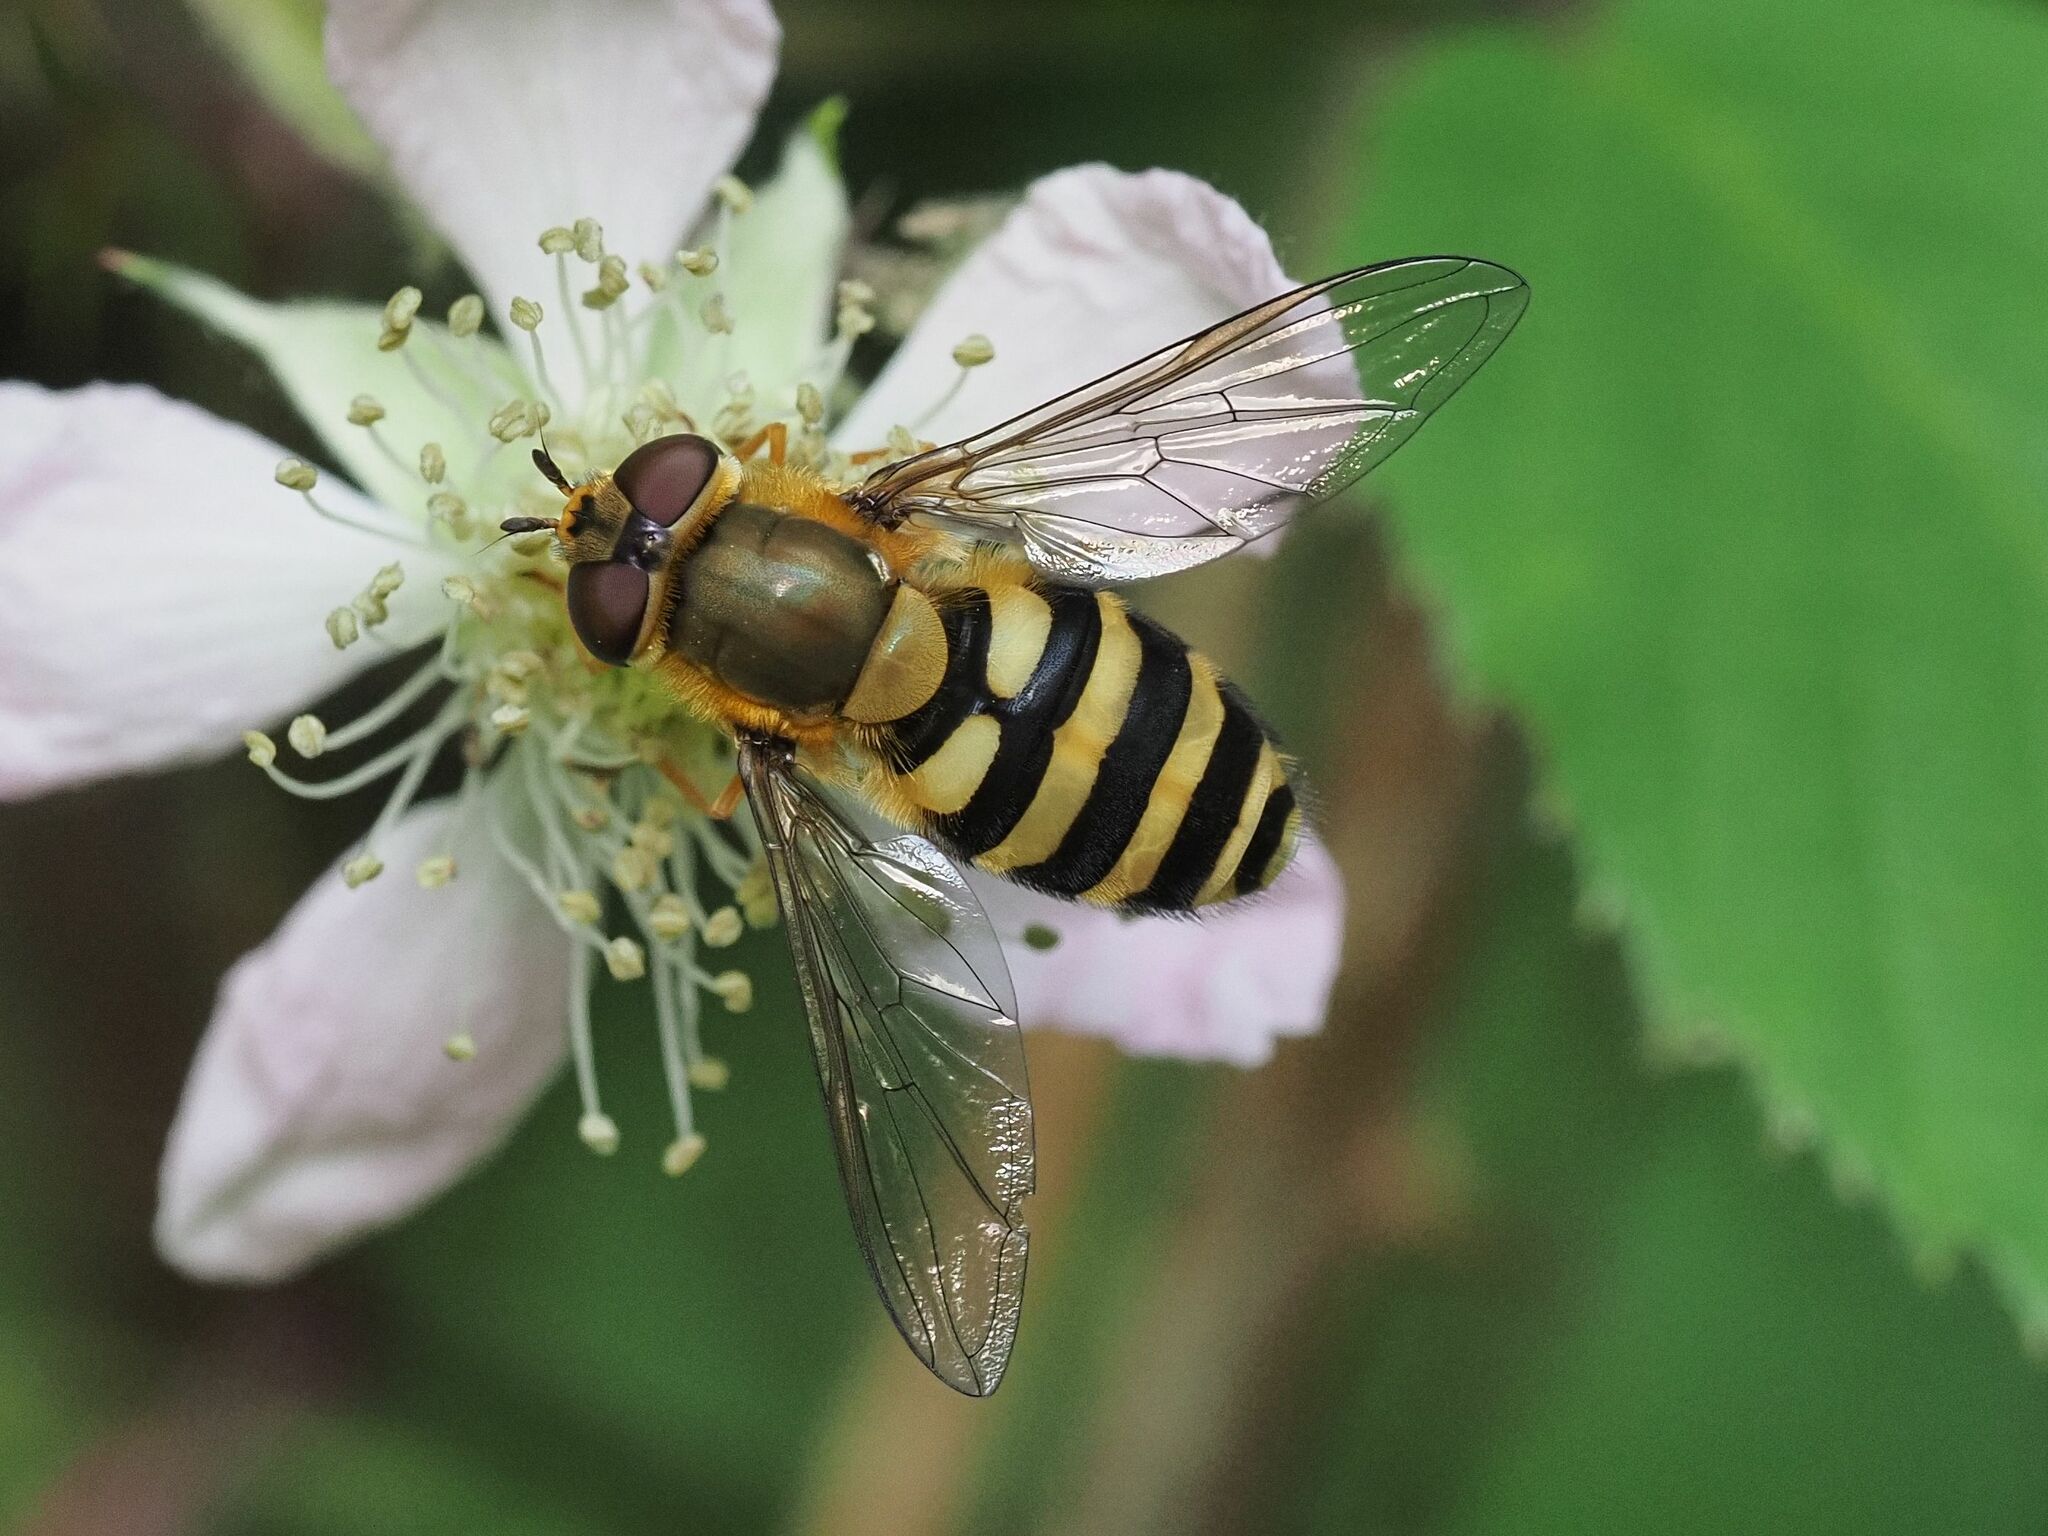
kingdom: Animalia
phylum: Arthropoda
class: Insecta
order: Diptera
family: Syrphidae
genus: Syrphus
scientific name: Syrphus
